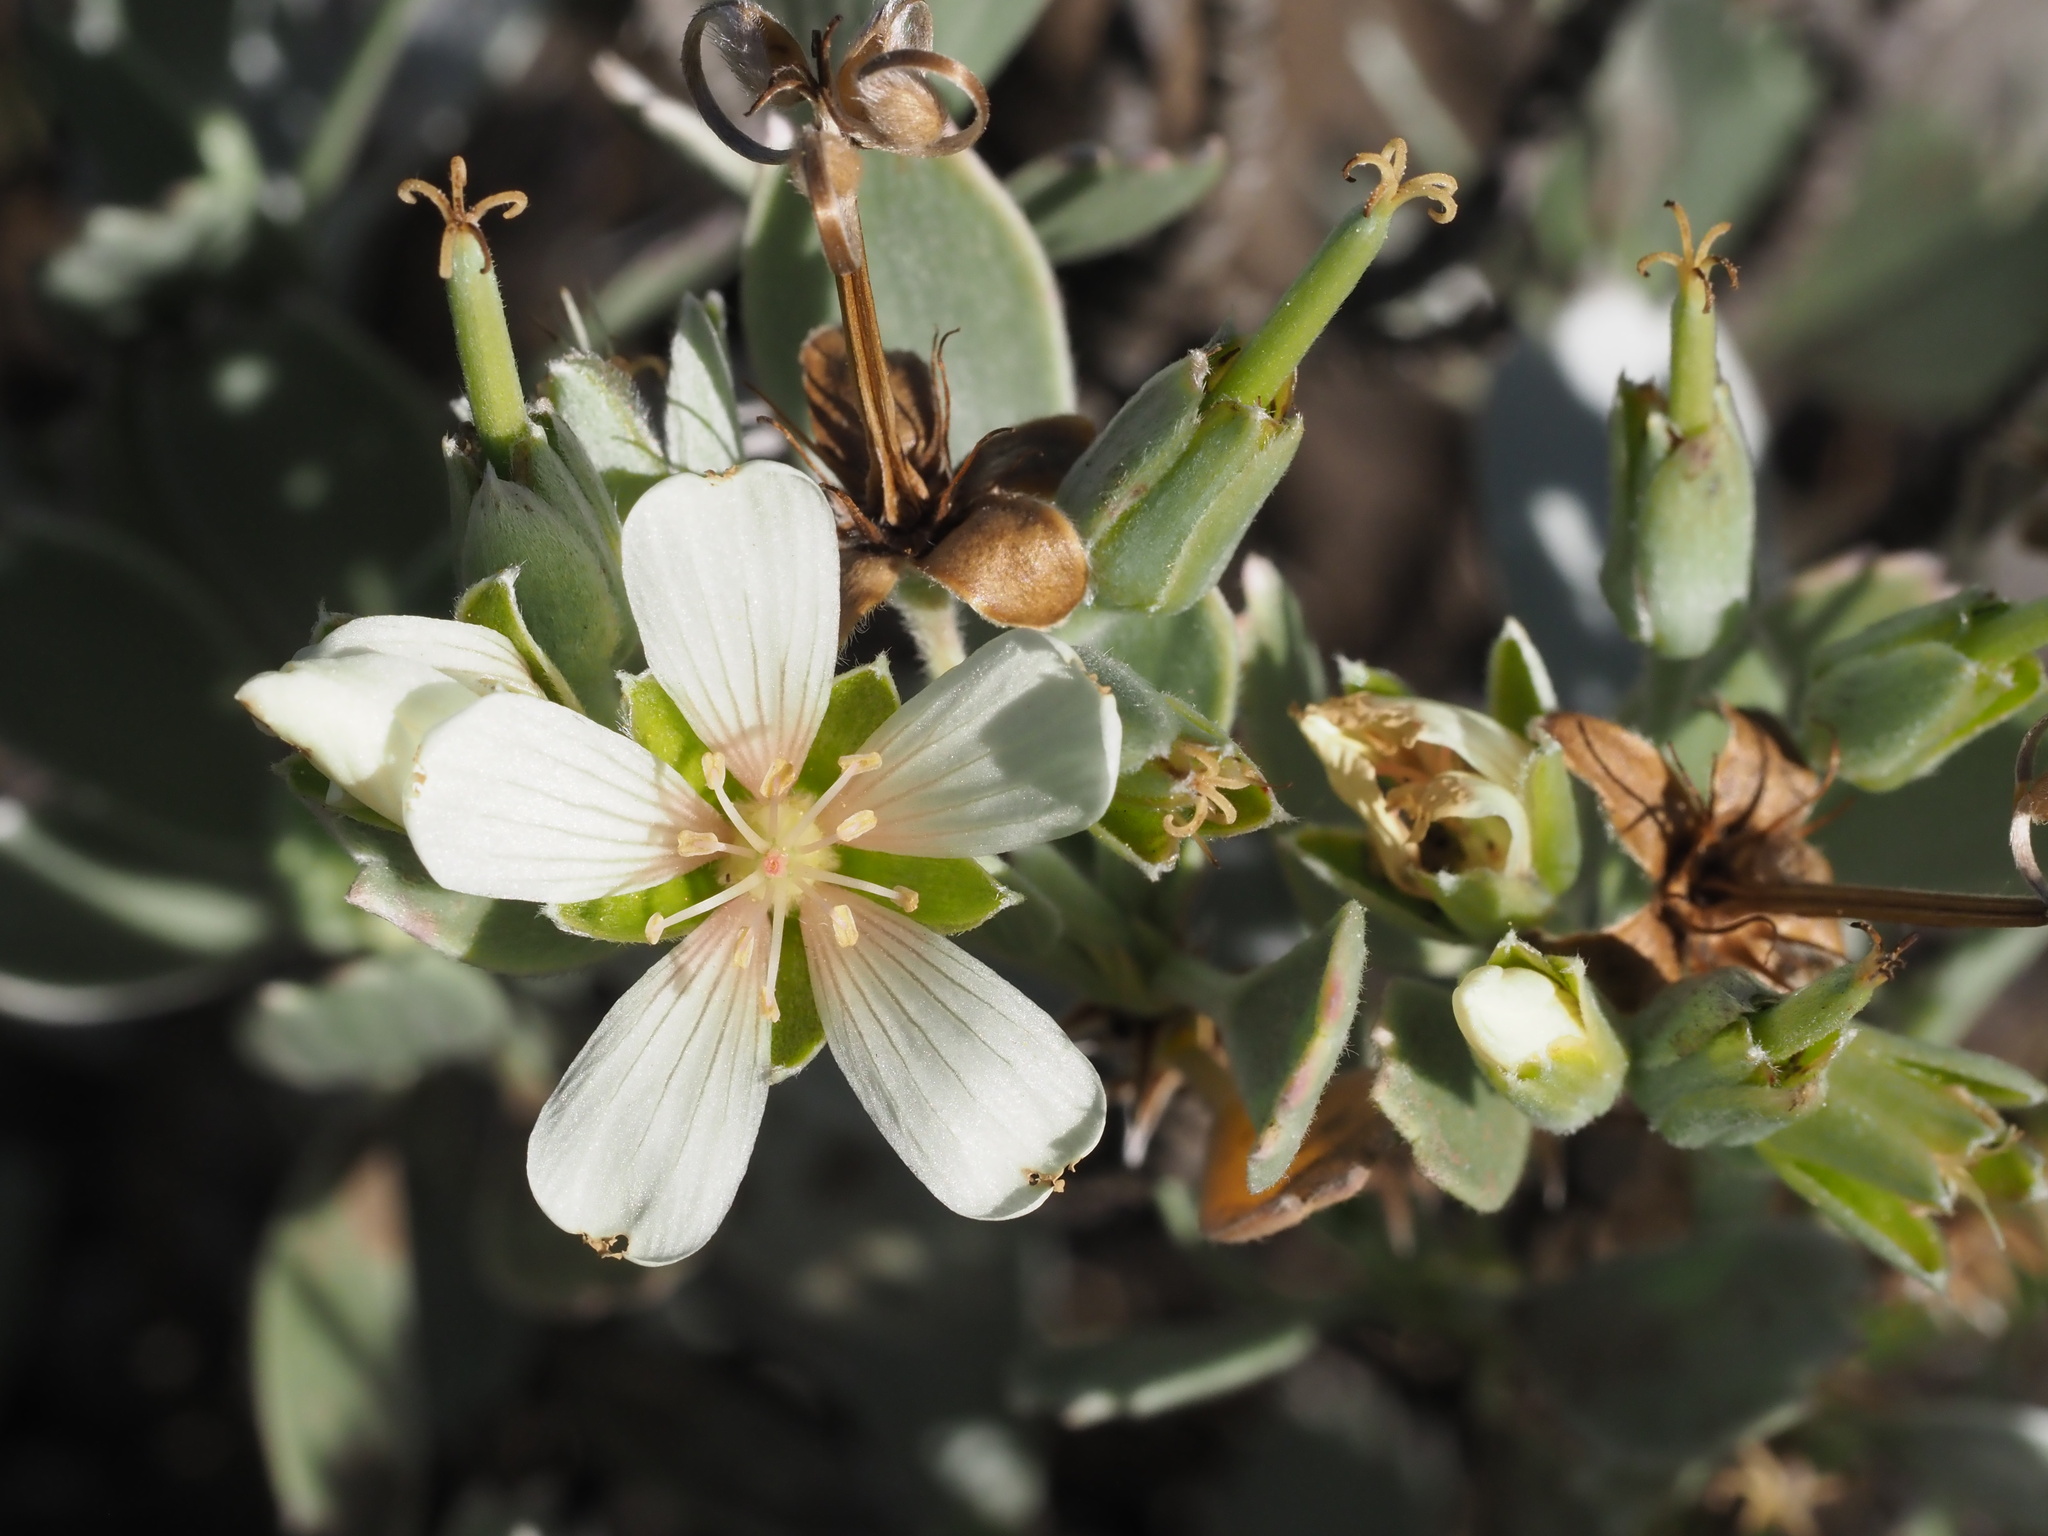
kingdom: Plantae
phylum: Tracheophyta
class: Magnoliopsida
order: Geraniales
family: Geraniaceae
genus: Geranium
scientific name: Geranium cuneatum
